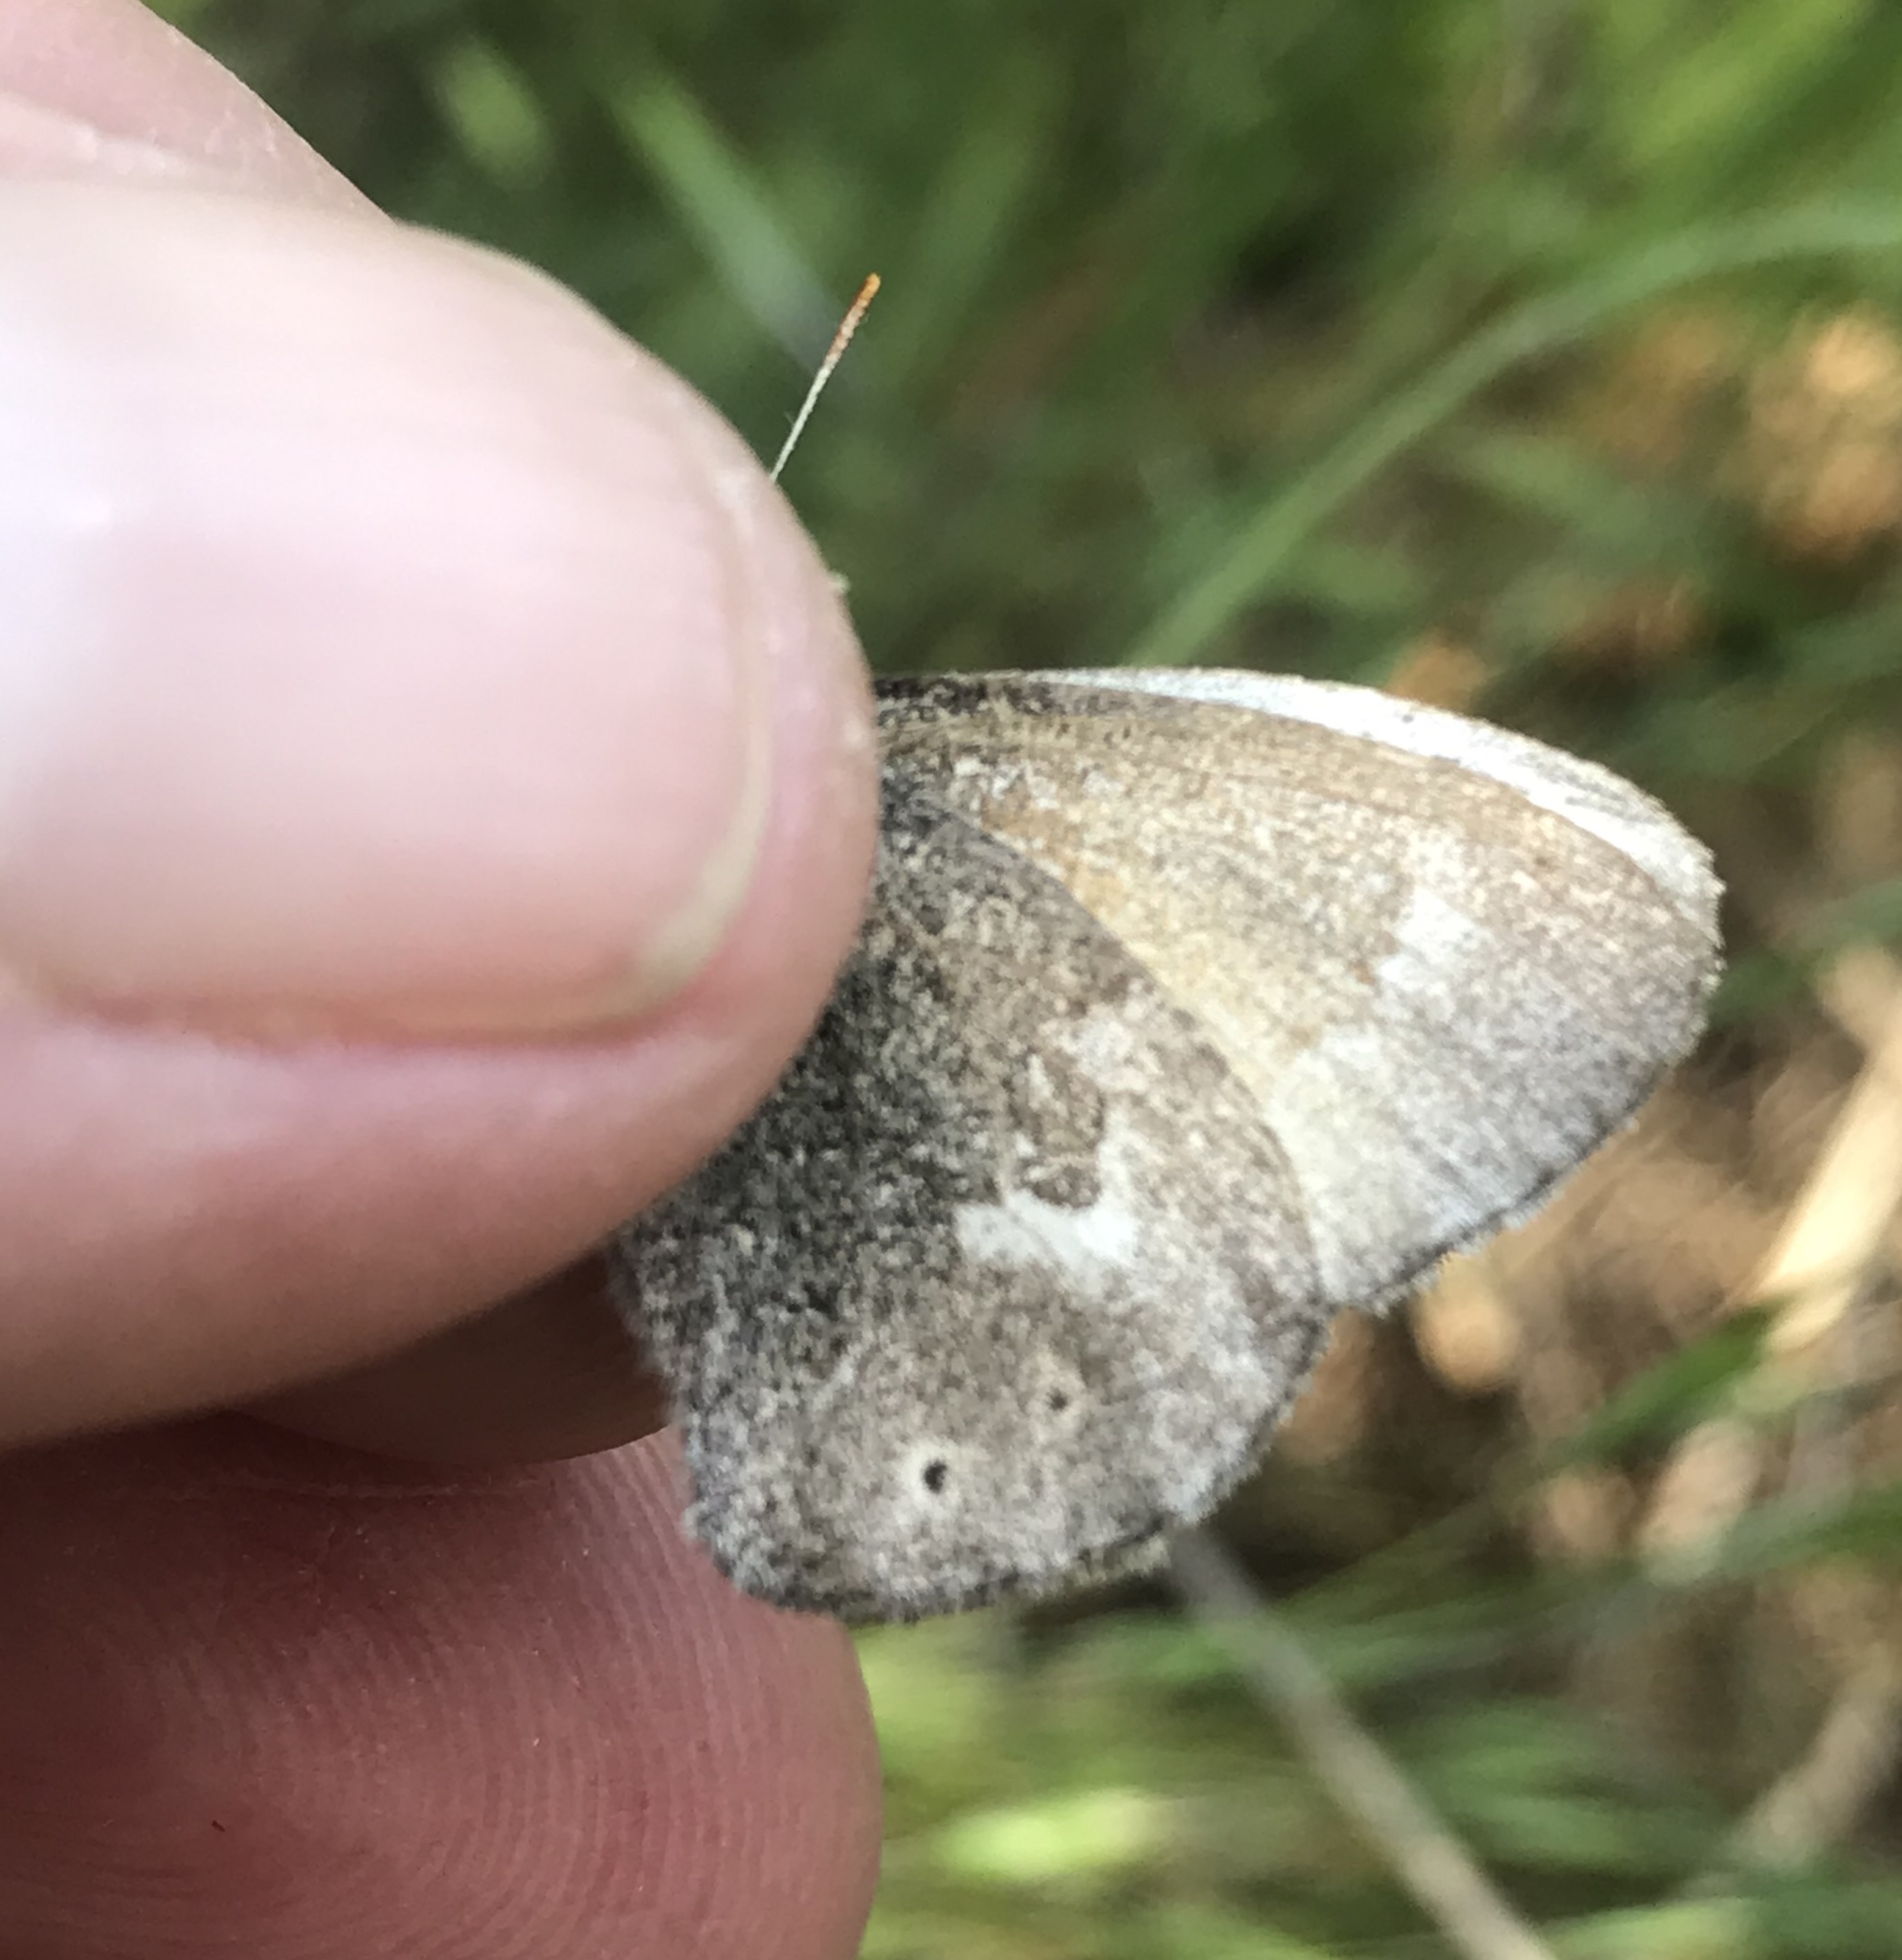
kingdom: Animalia
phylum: Arthropoda
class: Insecta
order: Lepidoptera
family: Nymphalidae
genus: Coenonympha
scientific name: Coenonympha california
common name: Common ringlet
